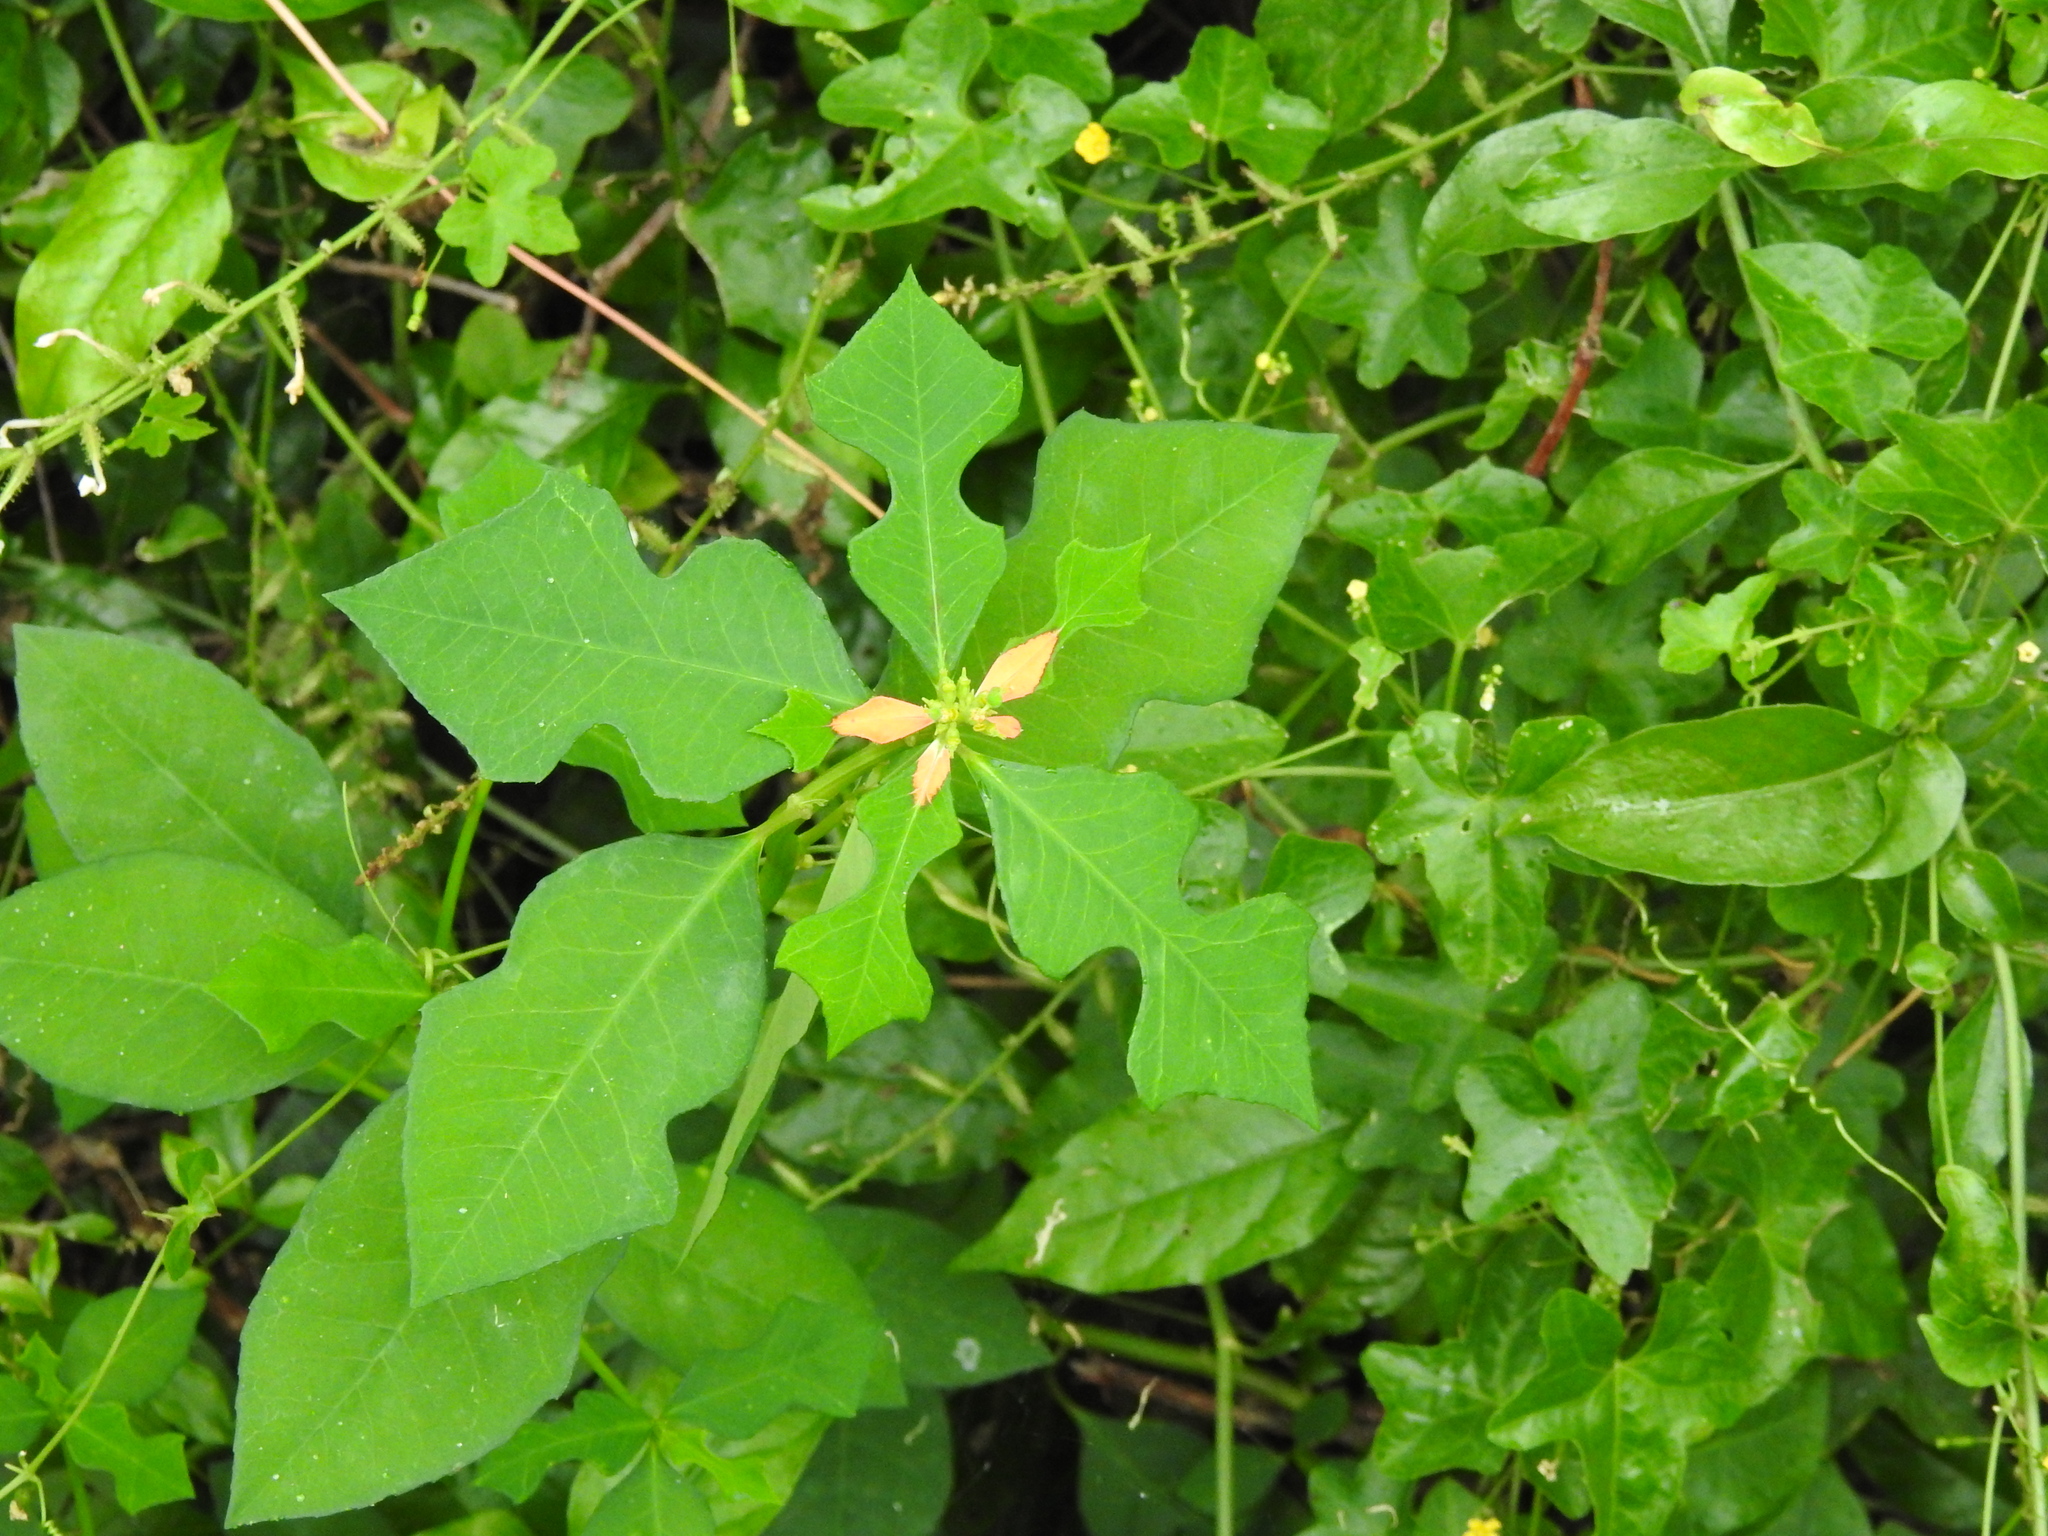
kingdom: Plantae
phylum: Tracheophyta
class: Magnoliopsida
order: Malpighiales
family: Euphorbiaceae
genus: Euphorbia
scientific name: Euphorbia heterophylla
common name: Mexican fireplant
